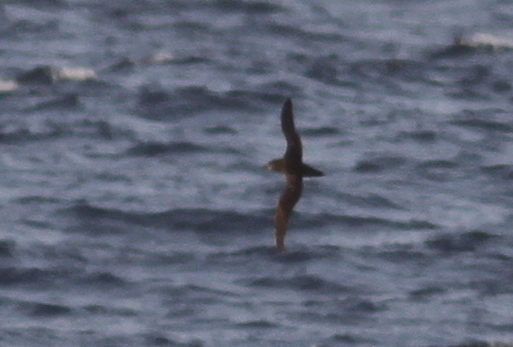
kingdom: Animalia
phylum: Chordata
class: Aves
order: Procellariiformes
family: Procellariidae
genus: Puffinus
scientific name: Puffinus griseus
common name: Sooty shearwater
